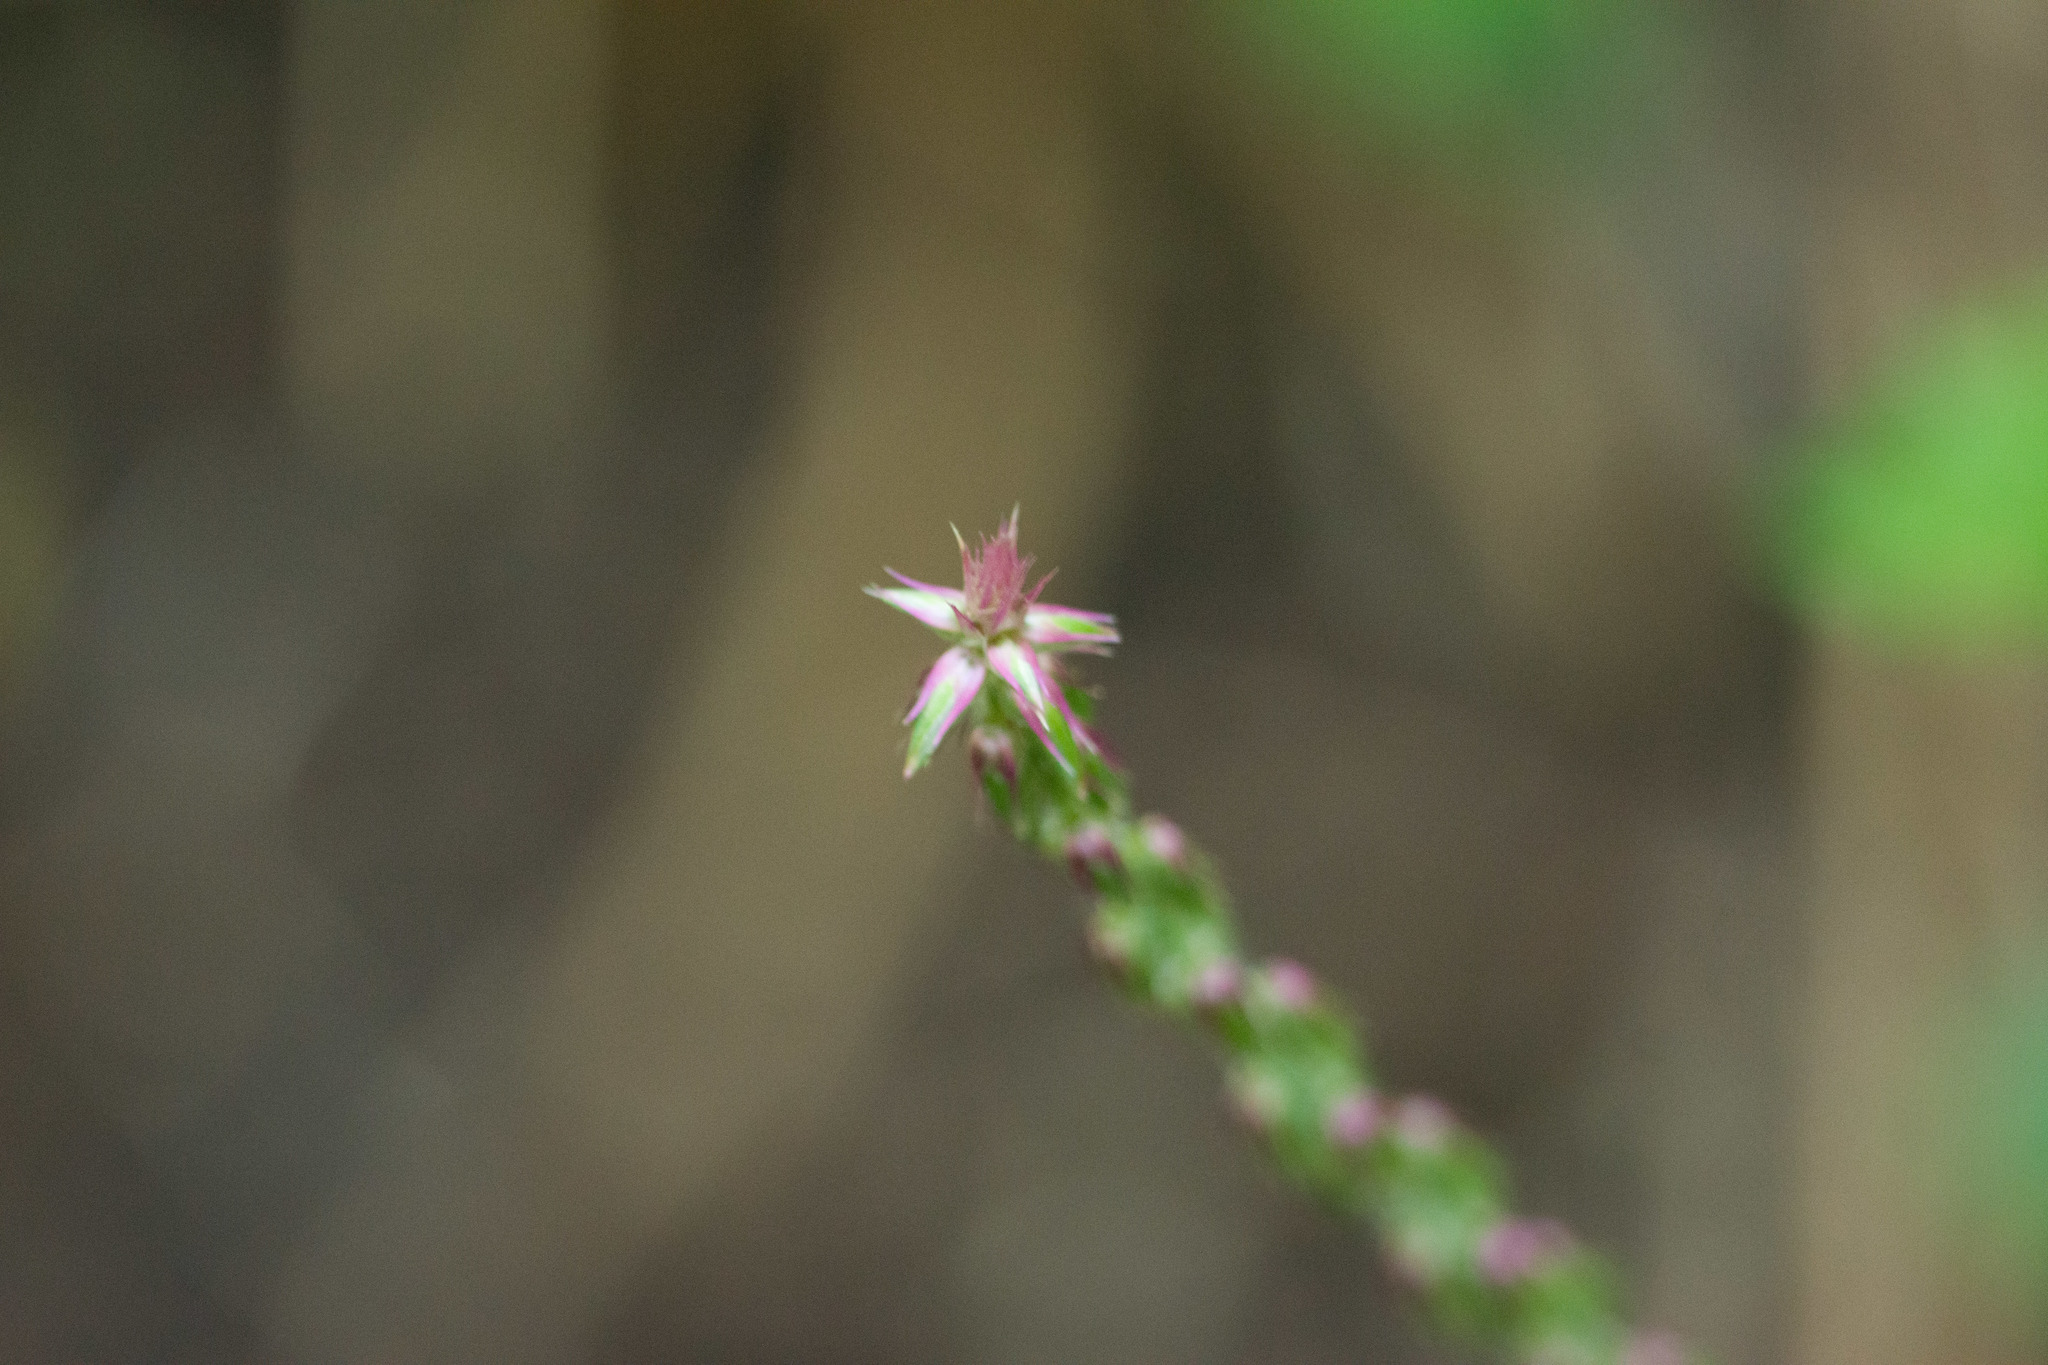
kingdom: Plantae
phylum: Tracheophyta
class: Magnoliopsida
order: Caryophyllales
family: Amaranthaceae
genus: Achyranthes
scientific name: Achyranthes aspera
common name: Devil's horsewhip
